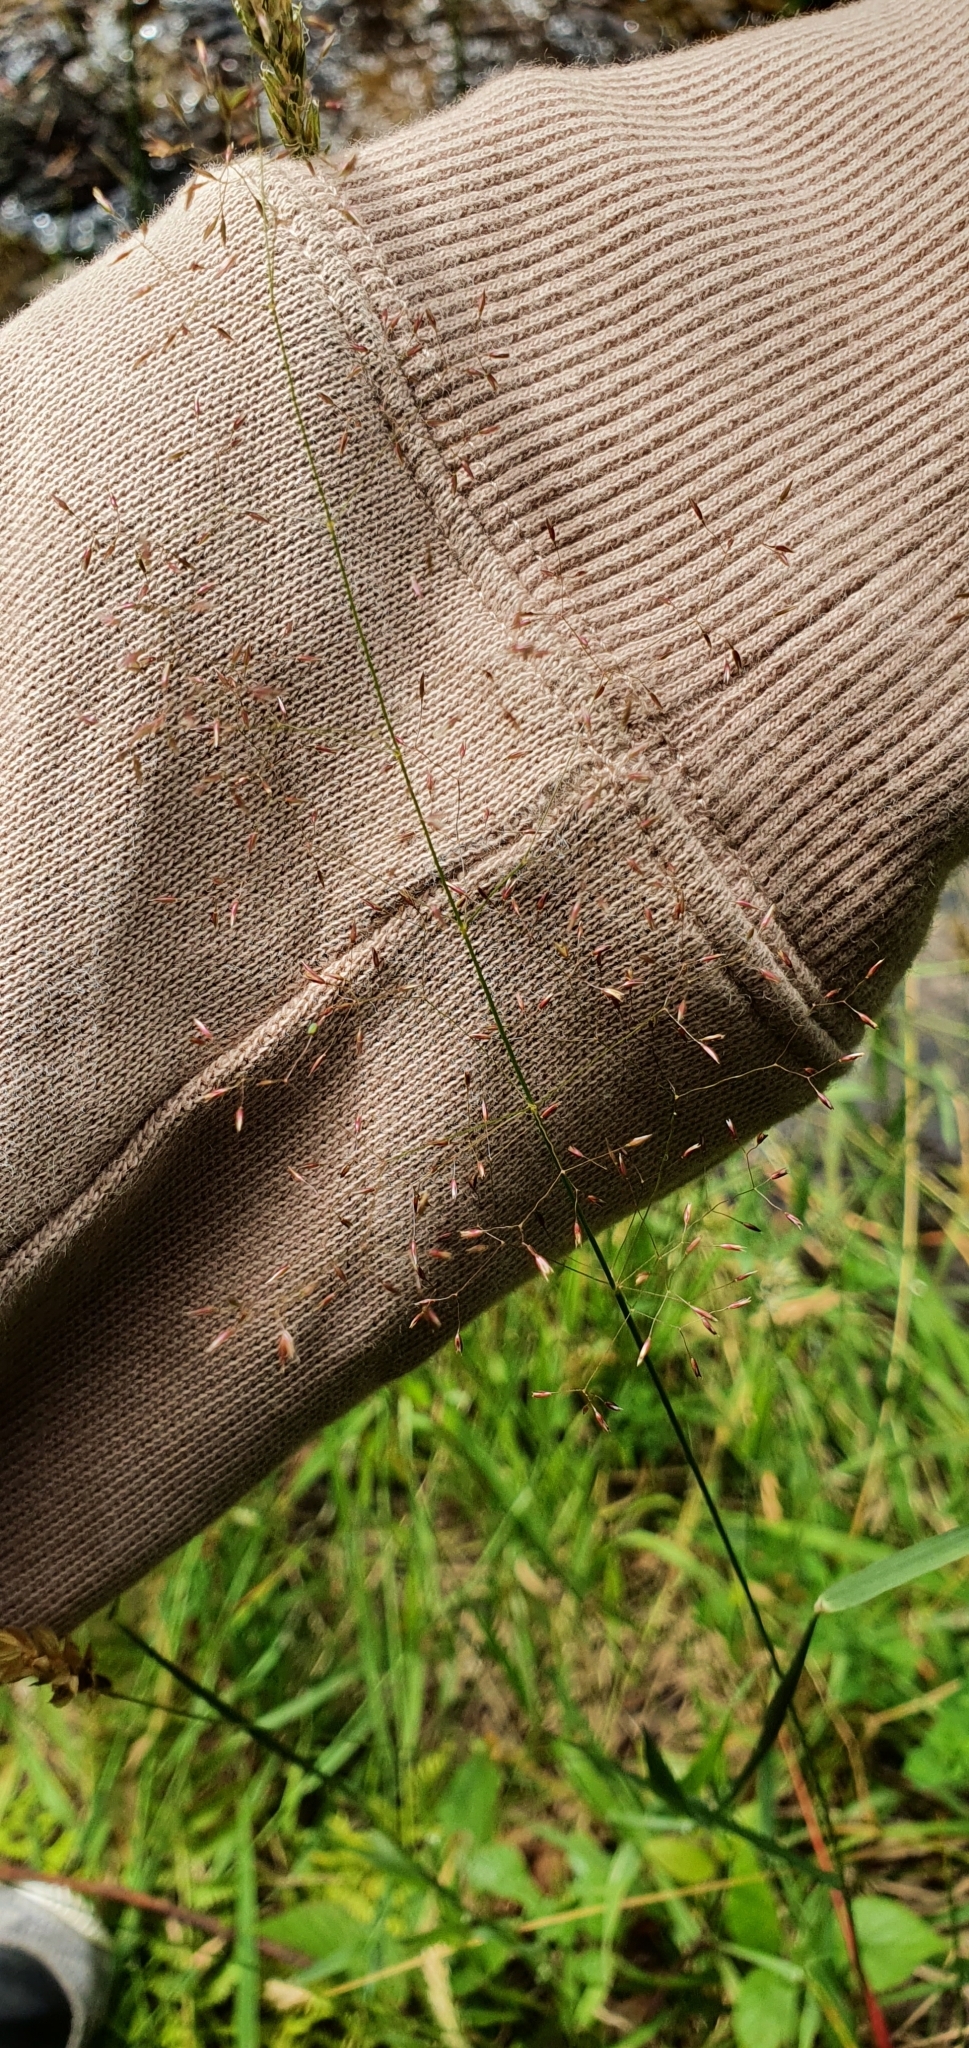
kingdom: Plantae
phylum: Tracheophyta
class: Liliopsida
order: Poales
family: Poaceae
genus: Agrostis
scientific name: Agrostis capillaris
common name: Colonial bentgrass
